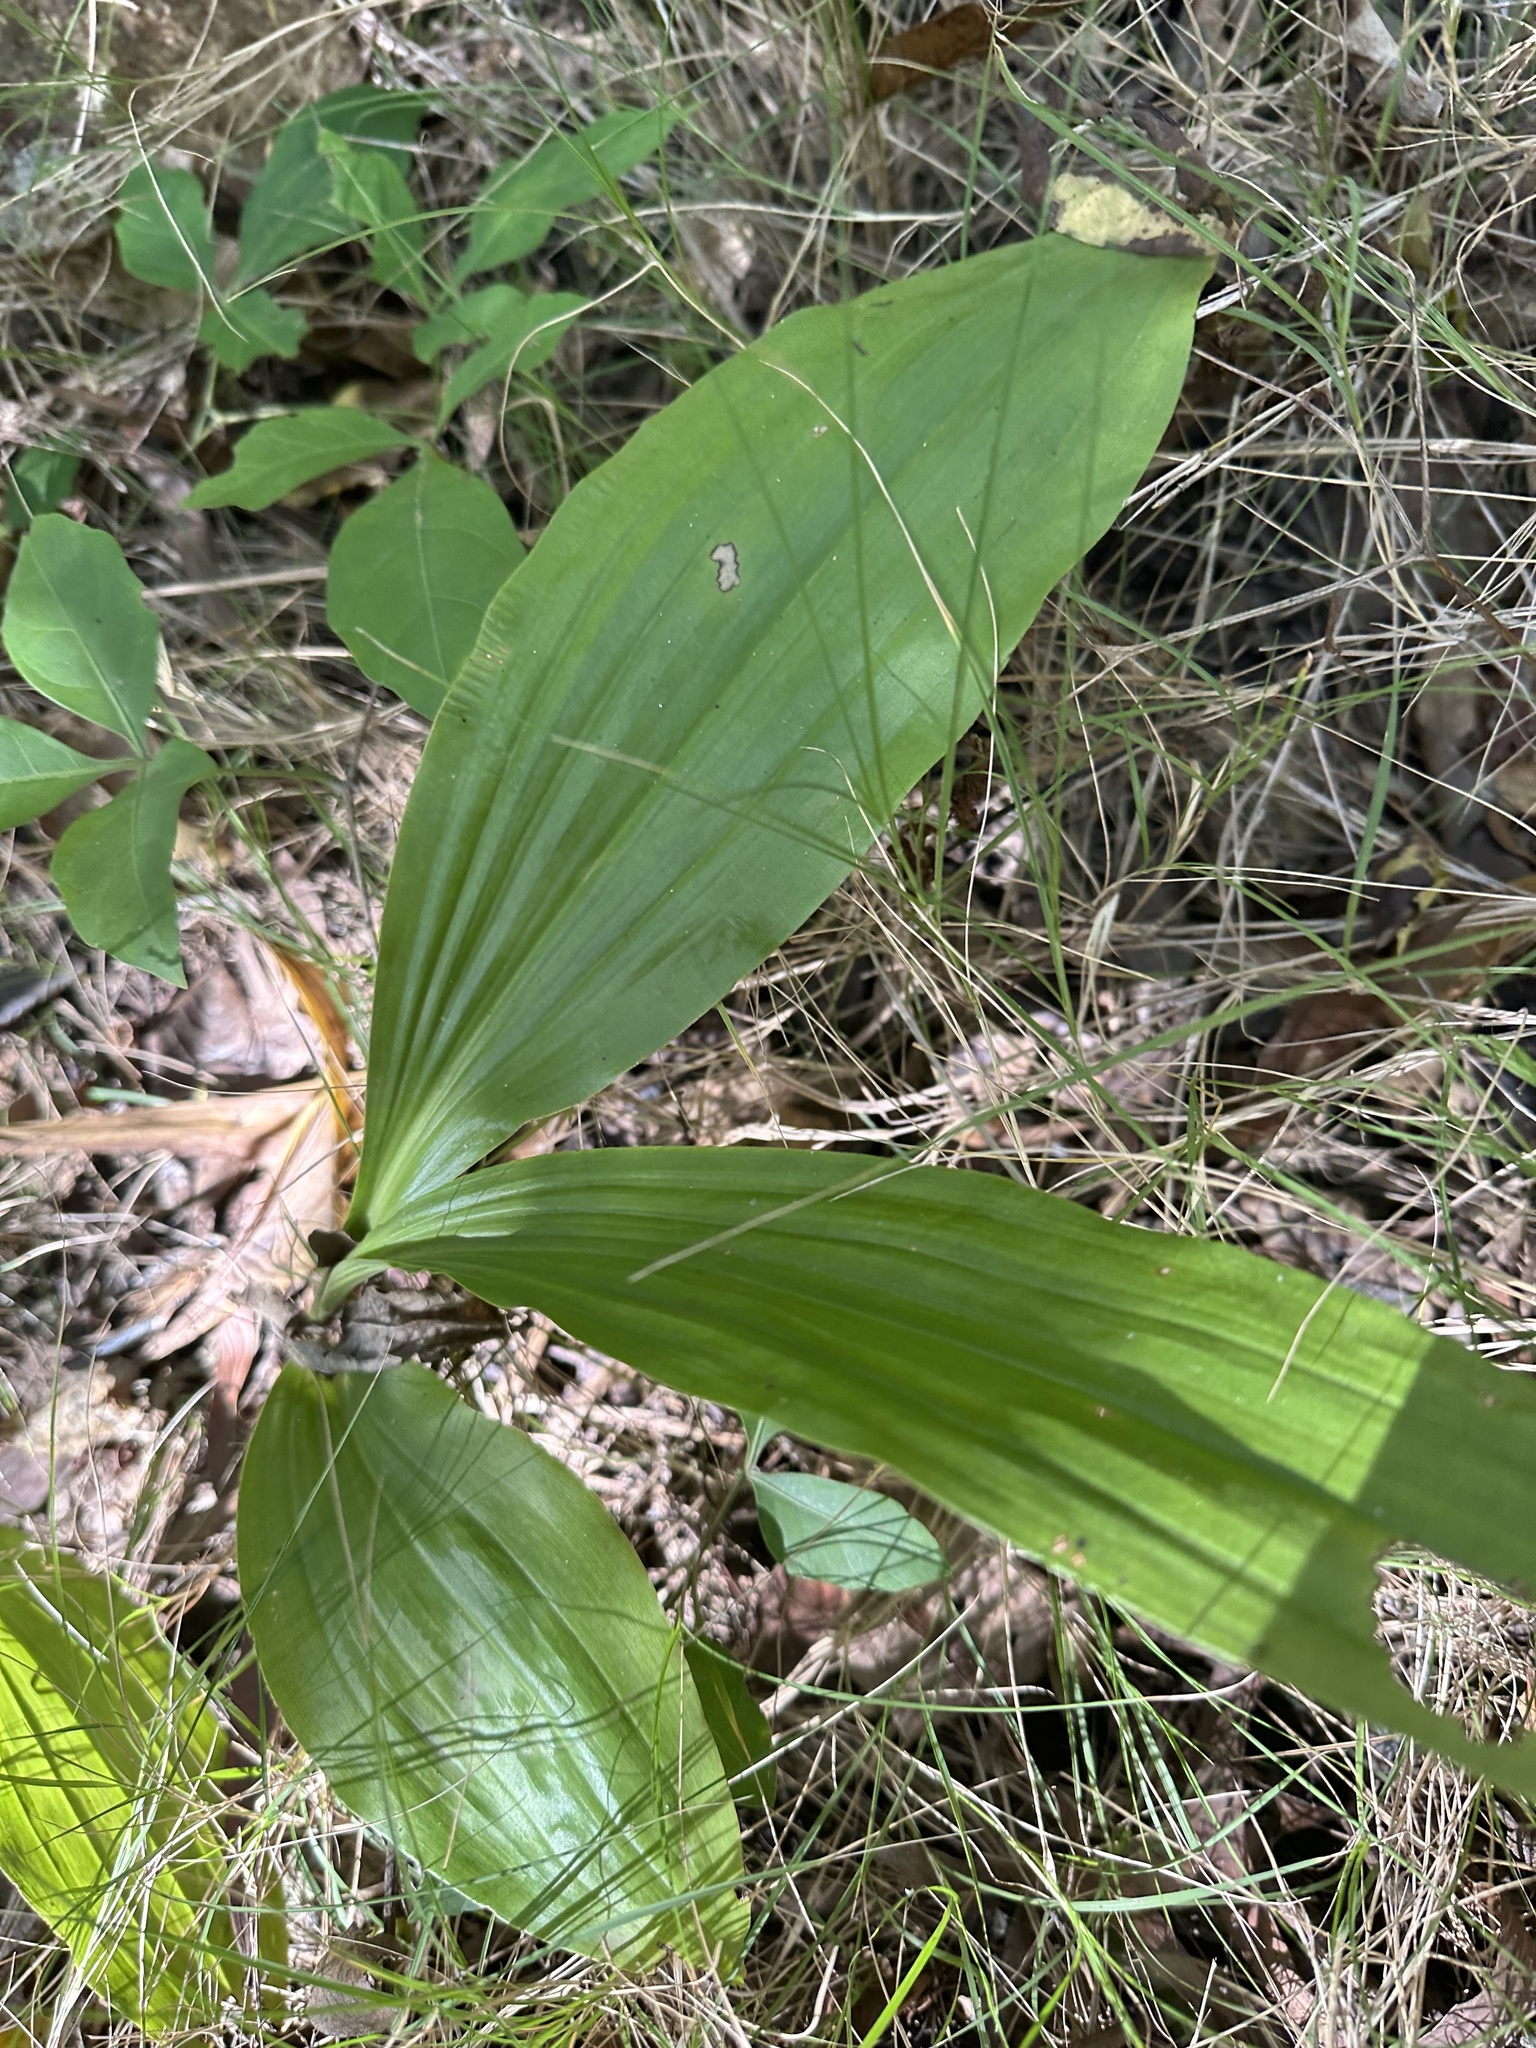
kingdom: Plantae
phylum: Tracheophyta
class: Liliopsida
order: Asparagales
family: Orchidaceae
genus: Eulophia
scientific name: Eulophia cernua
